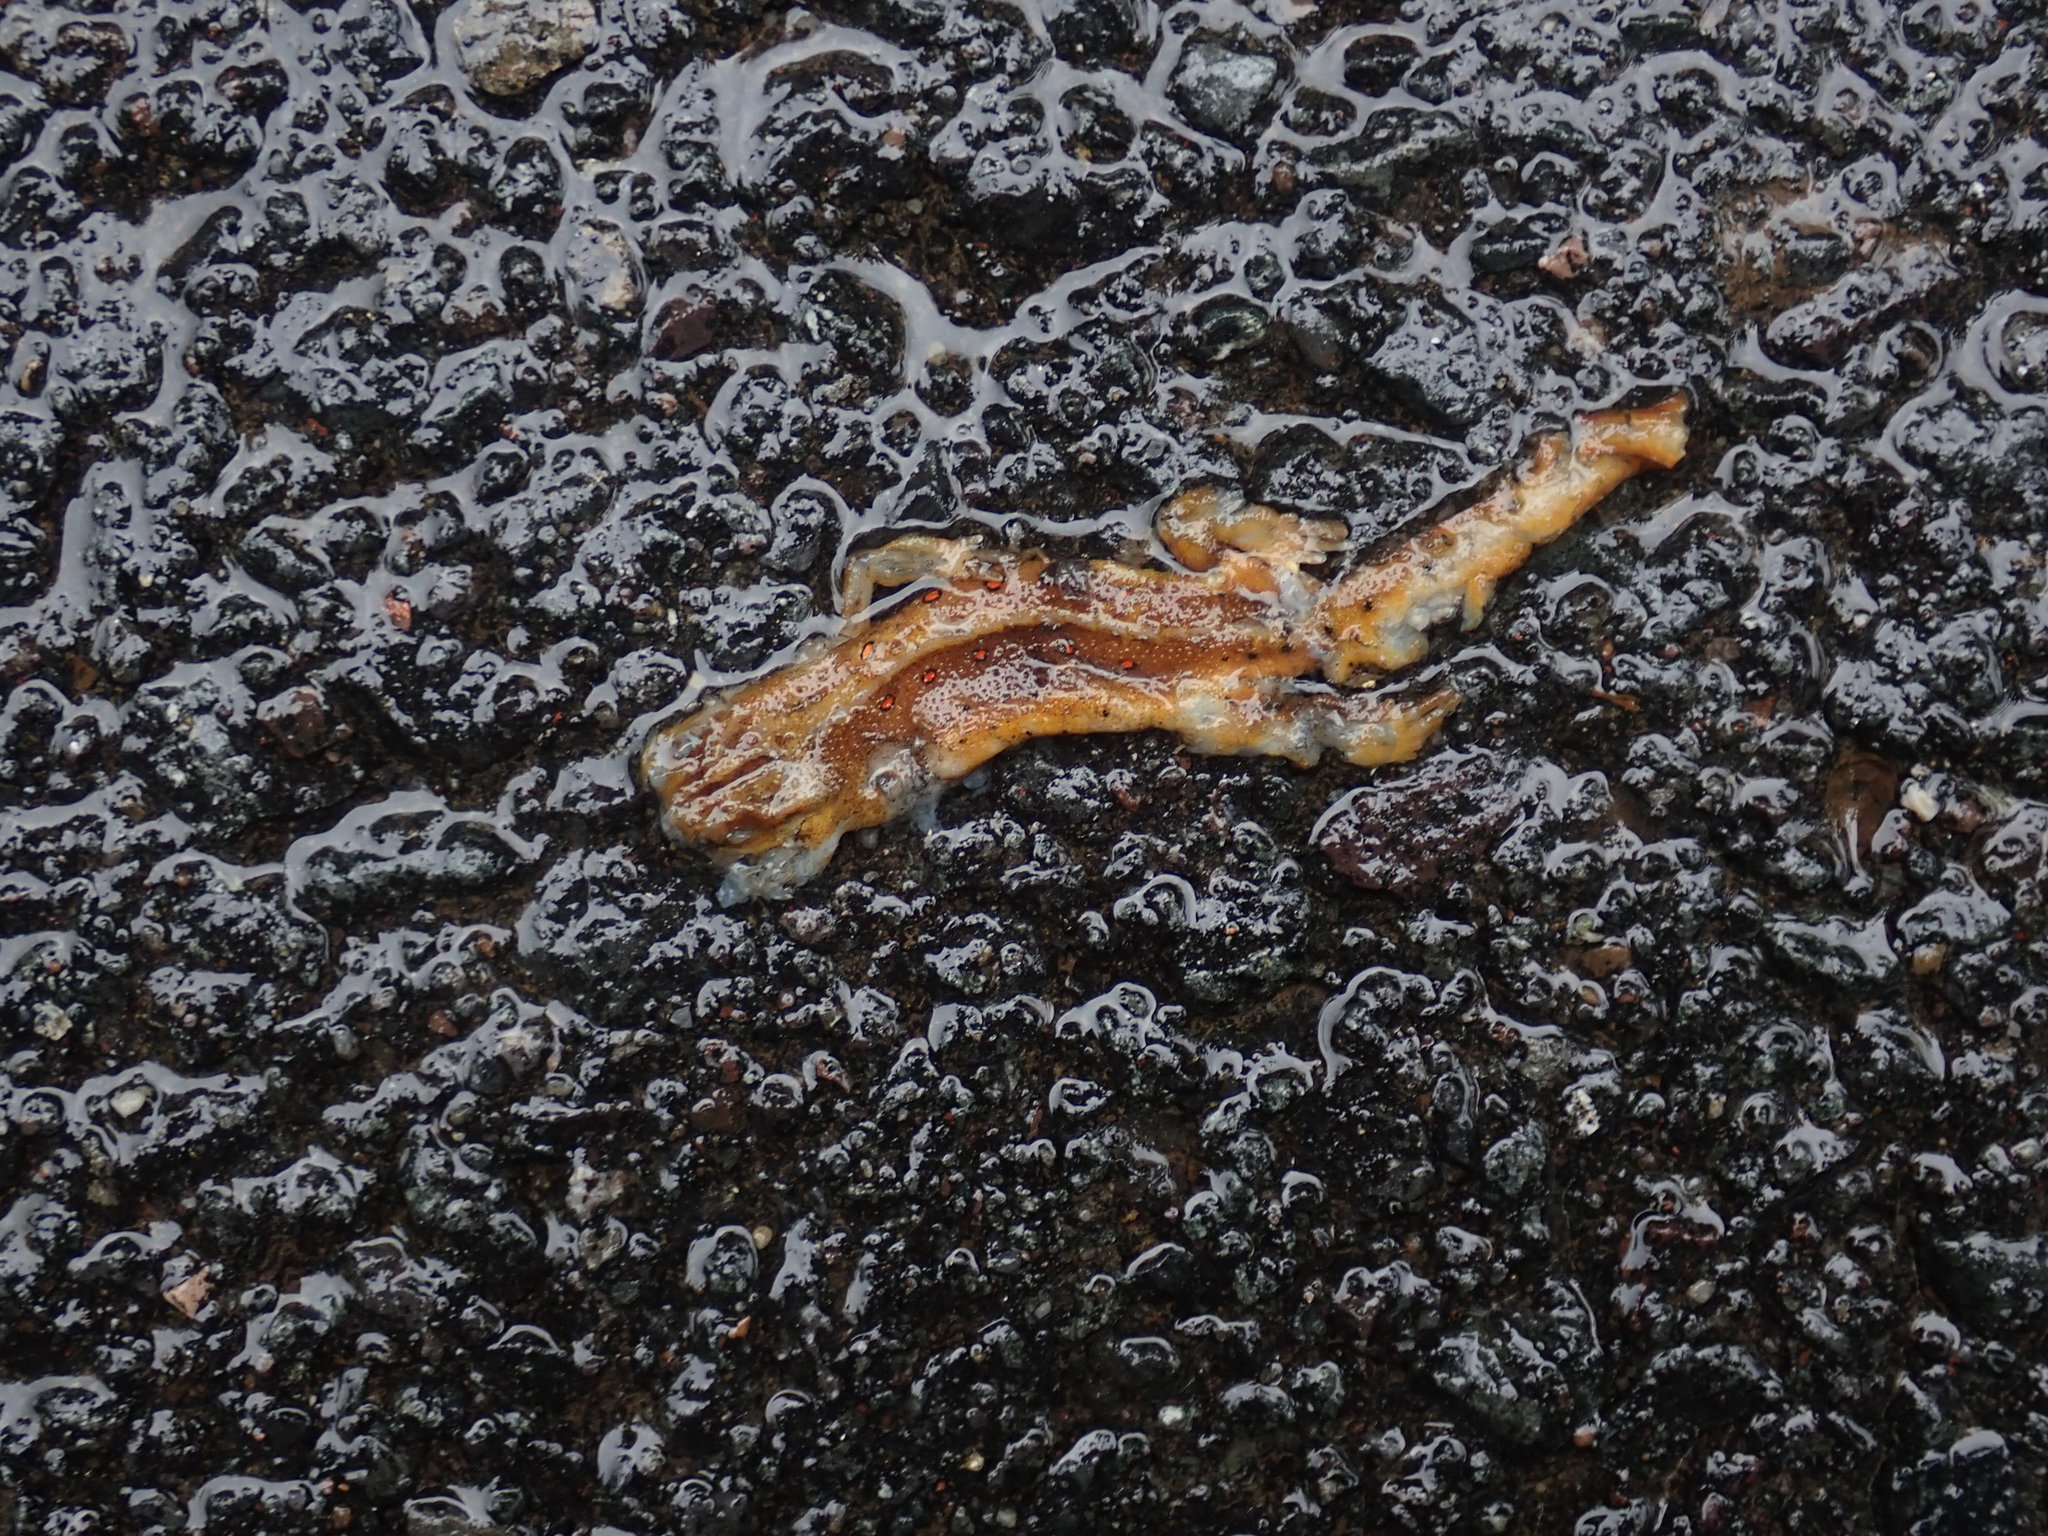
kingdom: Animalia
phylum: Chordata
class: Amphibia
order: Caudata
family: Salamandridae
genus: Notophthalmus
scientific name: Notophthalmus viridescens
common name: Eastern newt
